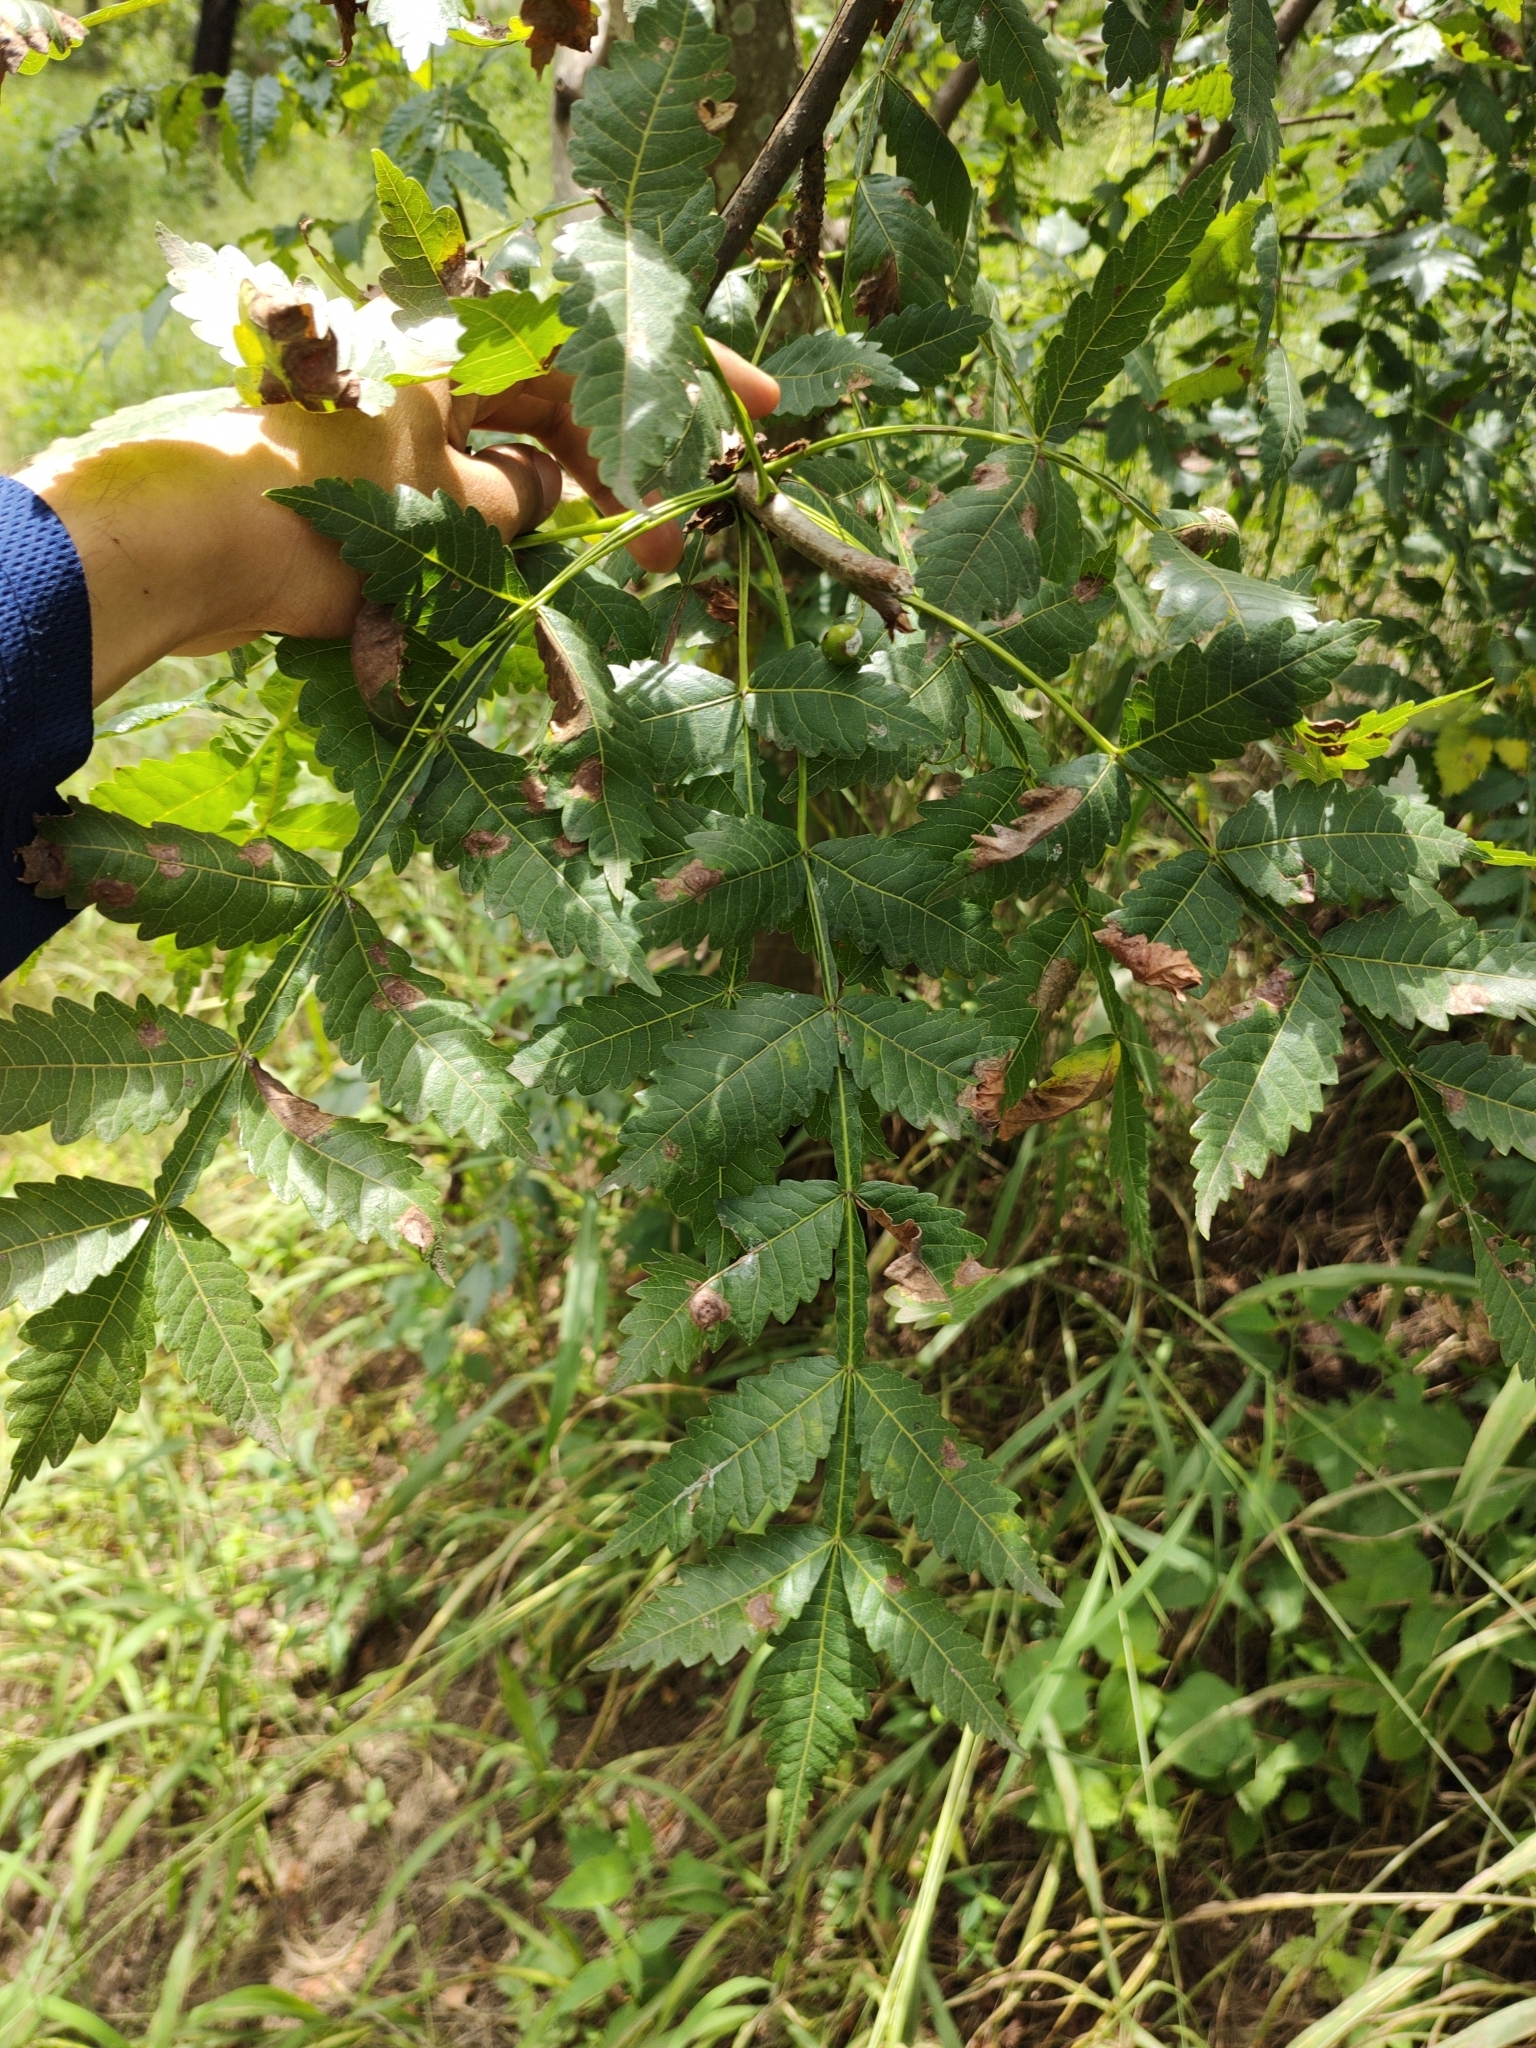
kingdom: Plantae
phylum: Tracheophyta
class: Magnoliopsida
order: Sapindales
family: Burseraceae
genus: Bursera
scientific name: Bursera penicillata
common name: Indian-lavender
